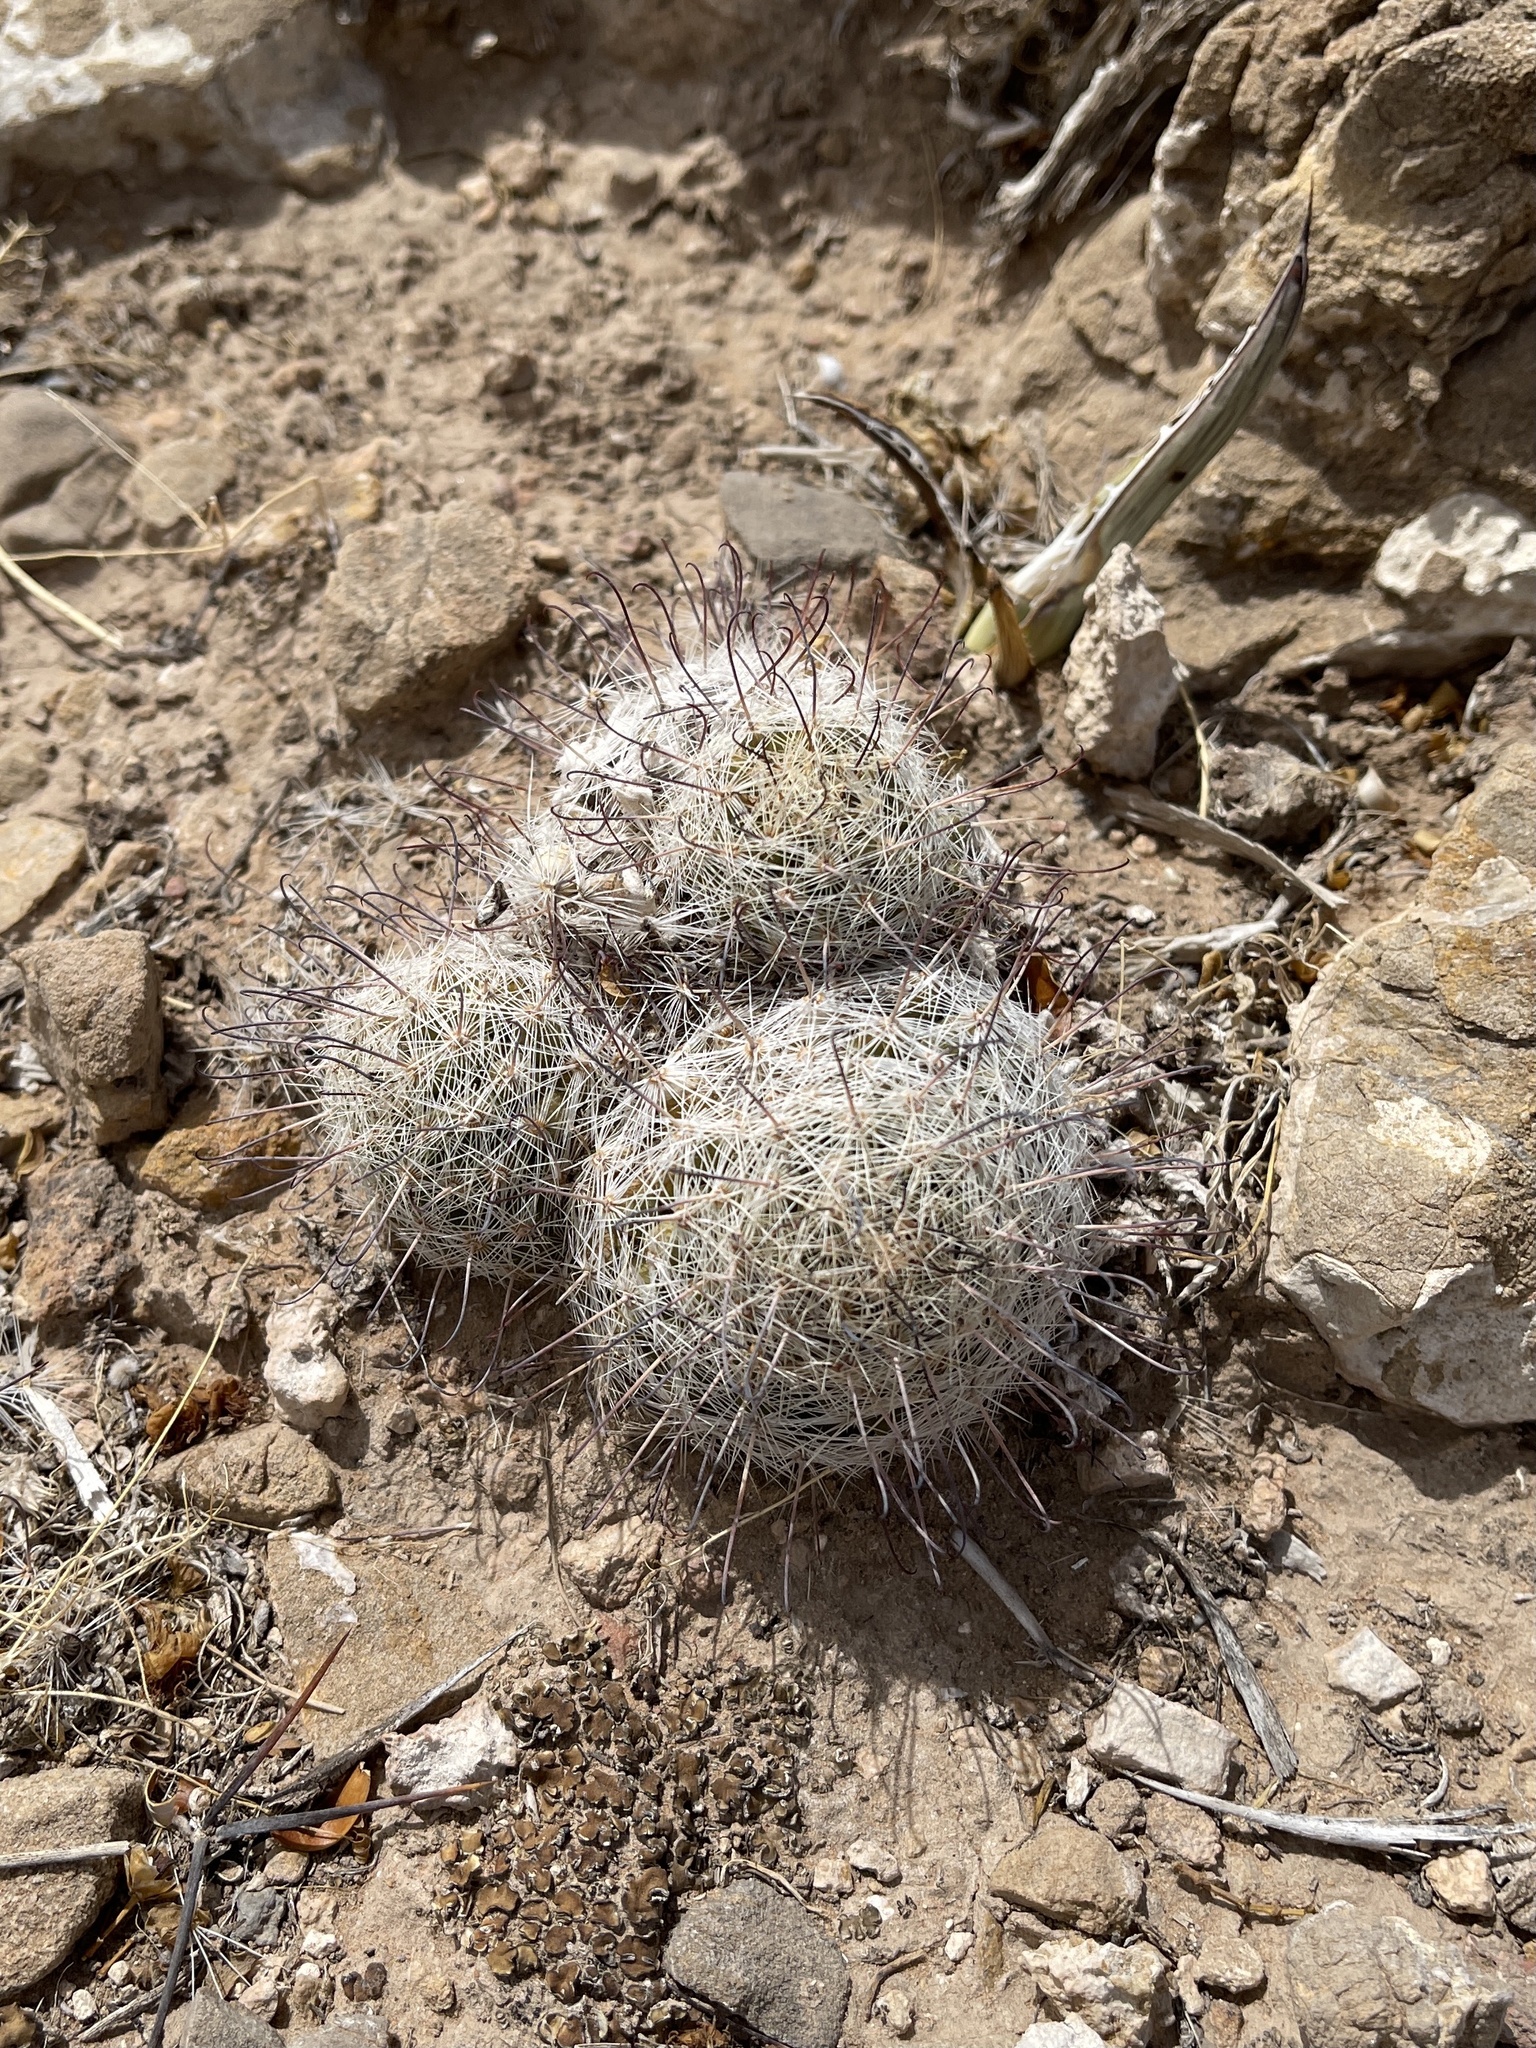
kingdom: Plantae
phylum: Tracheophyta
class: Magnoliopsida
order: Caryophyllales
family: Cactaceae
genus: Cochemiea
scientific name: Cochemiea grahamii
